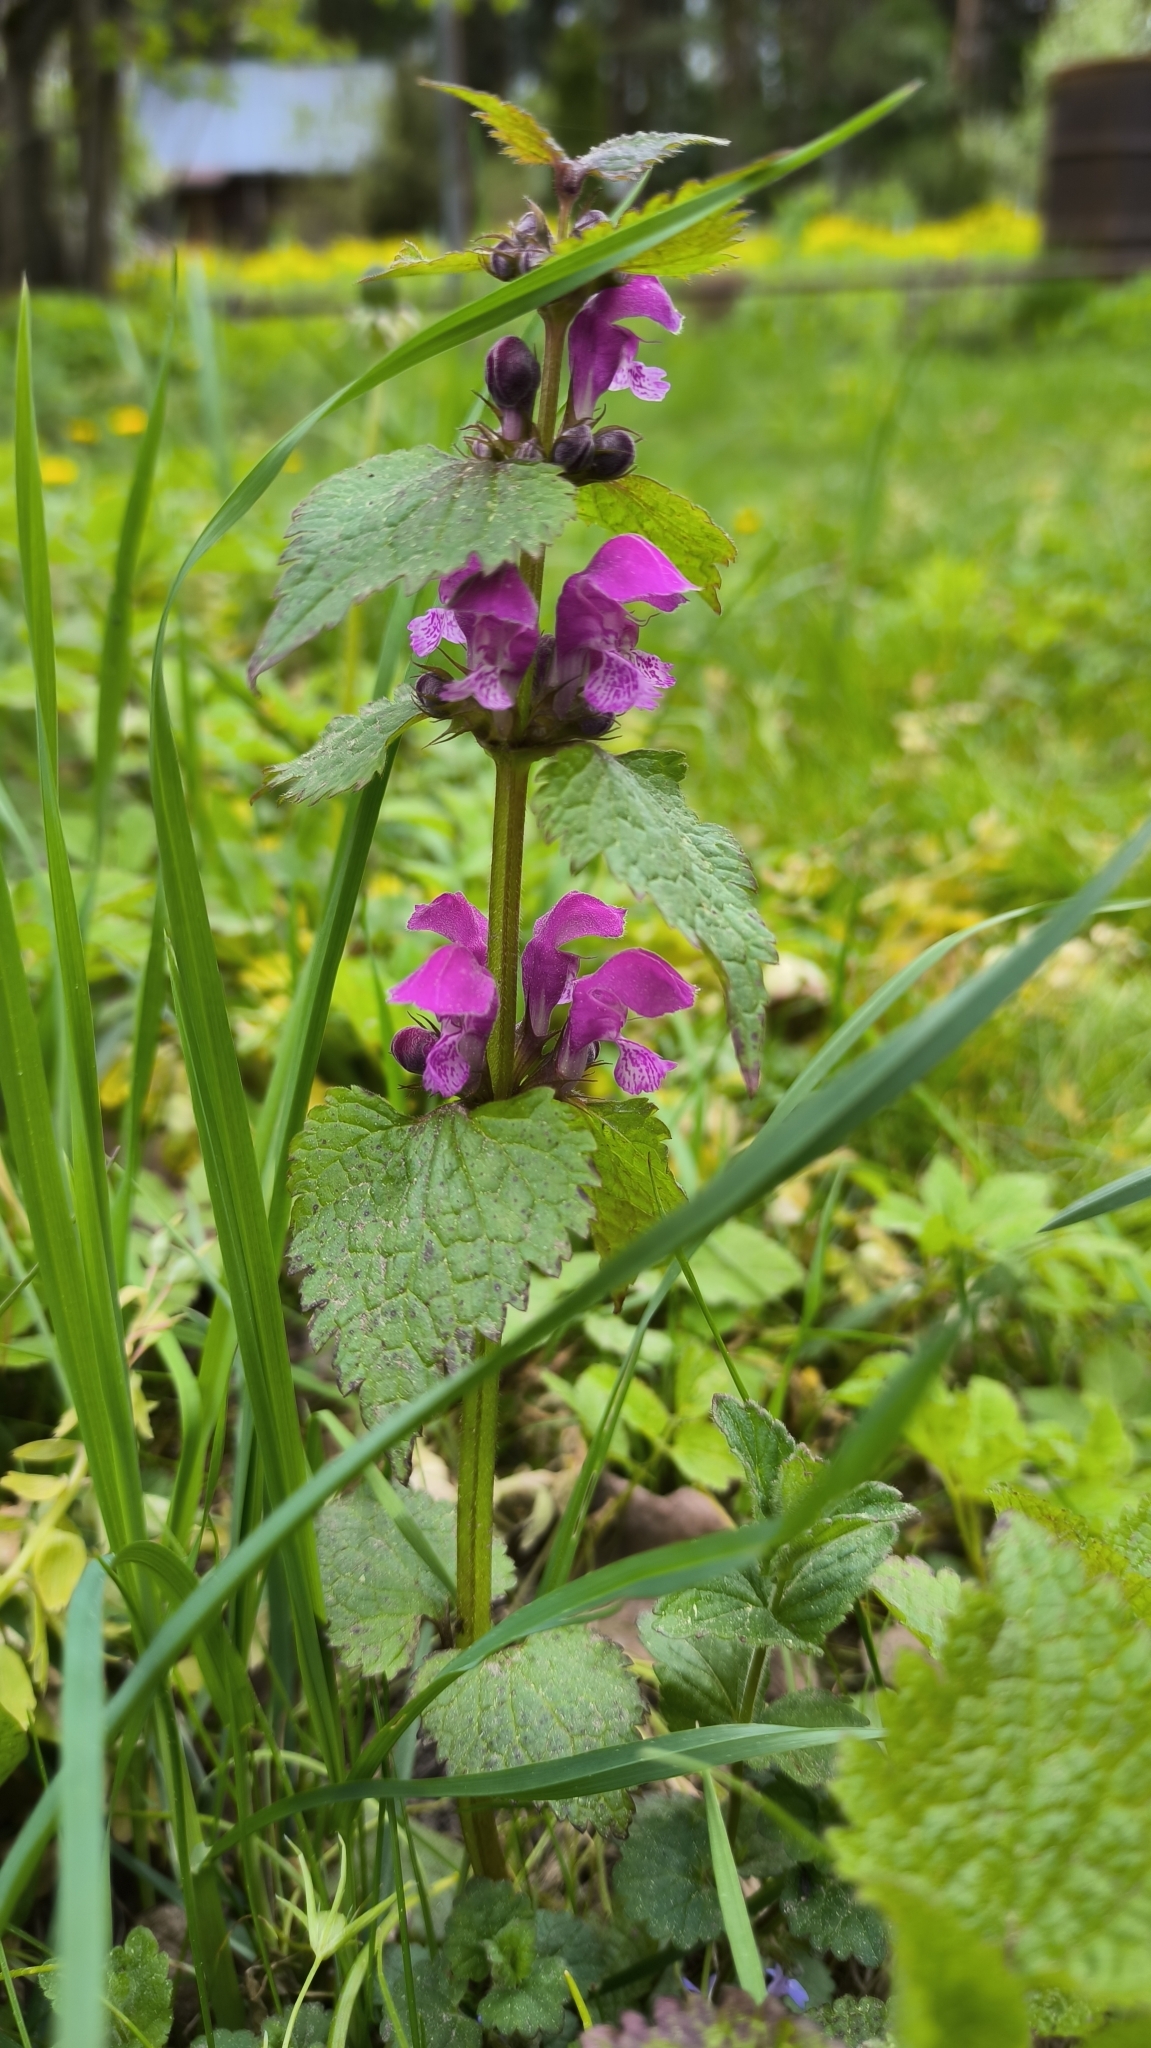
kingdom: Plantae
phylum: Tracheophyta
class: Magnoliopsida
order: Lamiales
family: Lamiaceae
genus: Lamium
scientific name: Lamium maculatum
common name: Spotted dead-nettle
